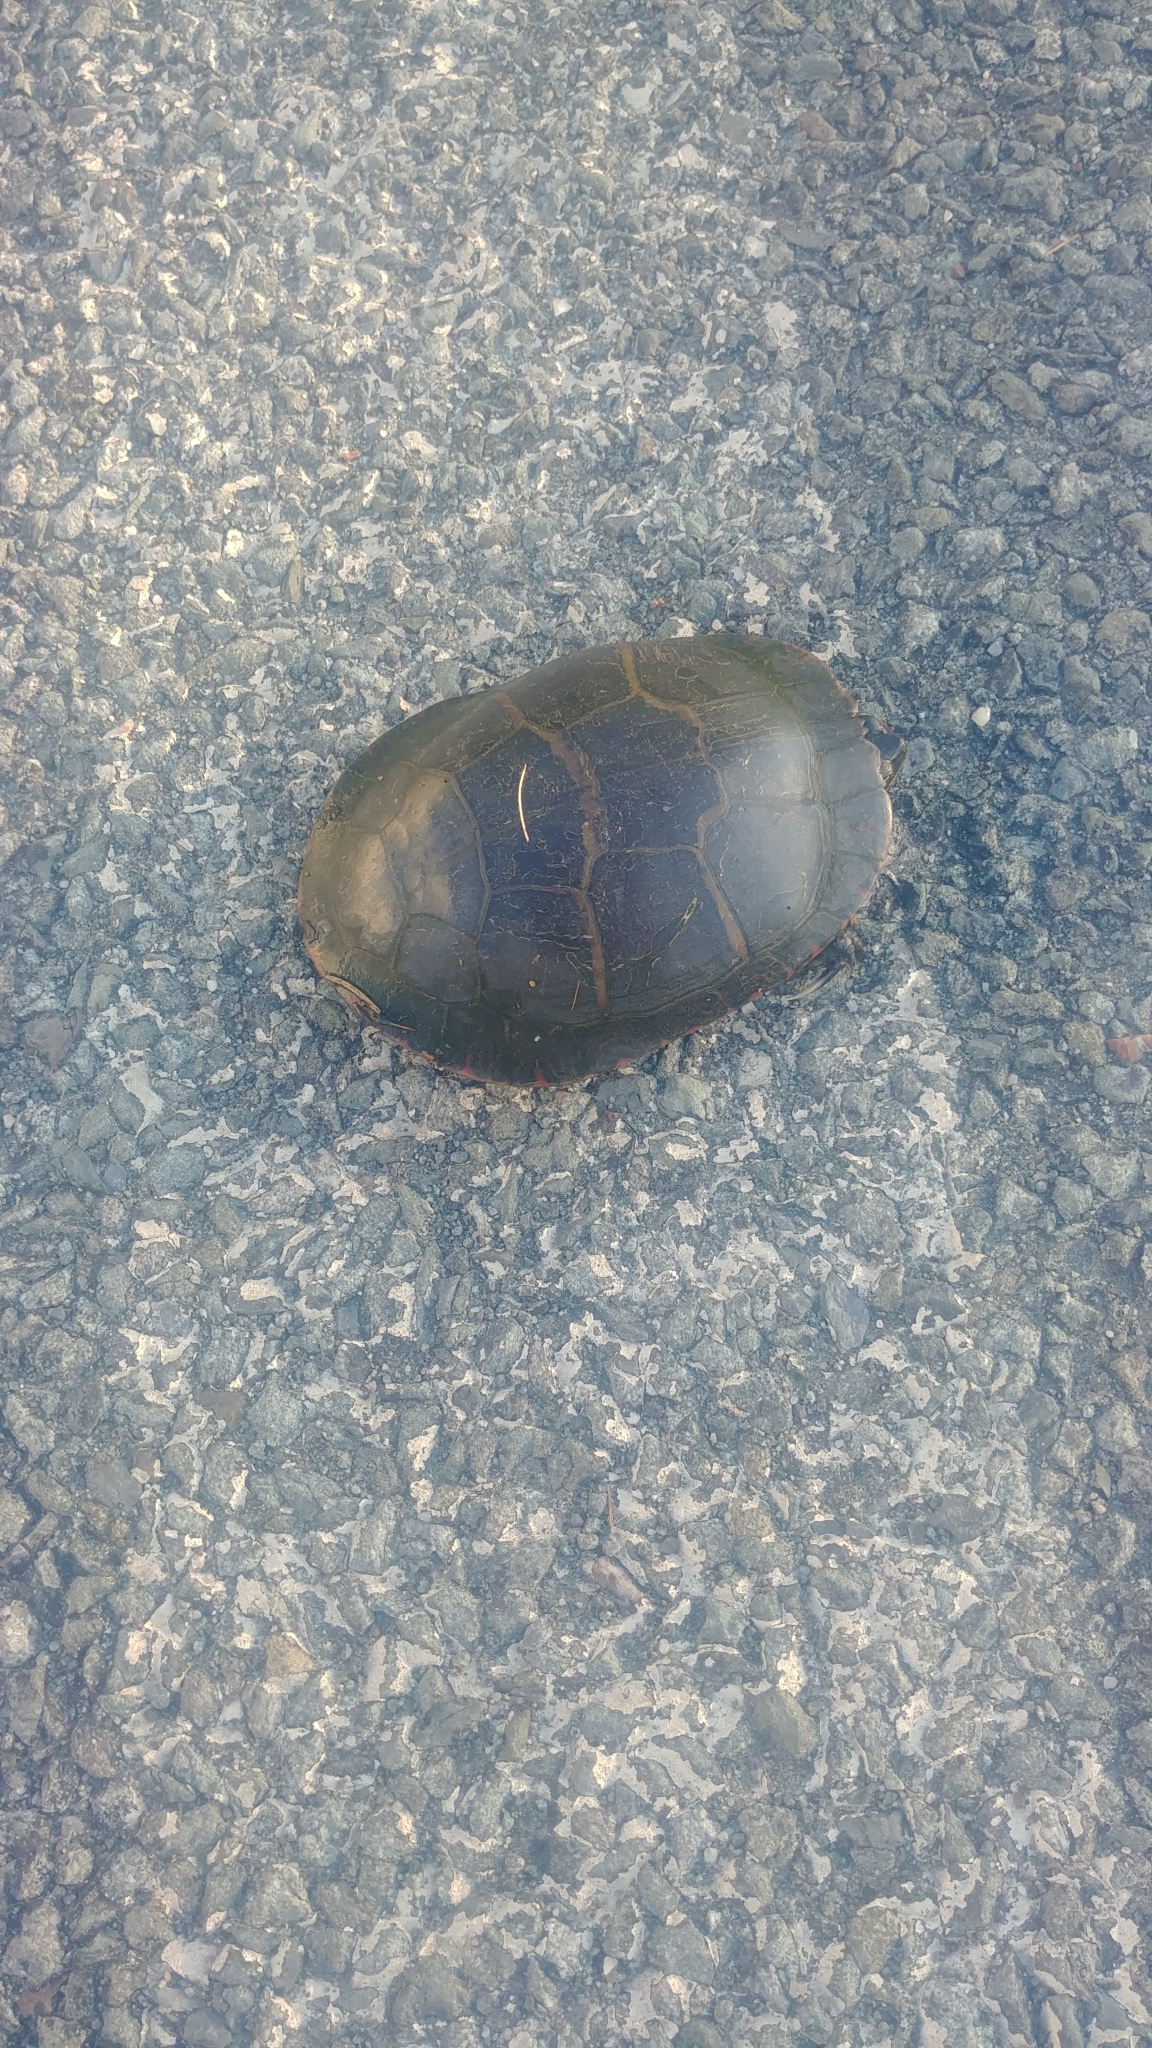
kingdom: Animalia
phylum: Chordata
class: Testudines
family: Emydidae
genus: Chrysemys
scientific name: Chrysemys picta
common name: Painted turtle
